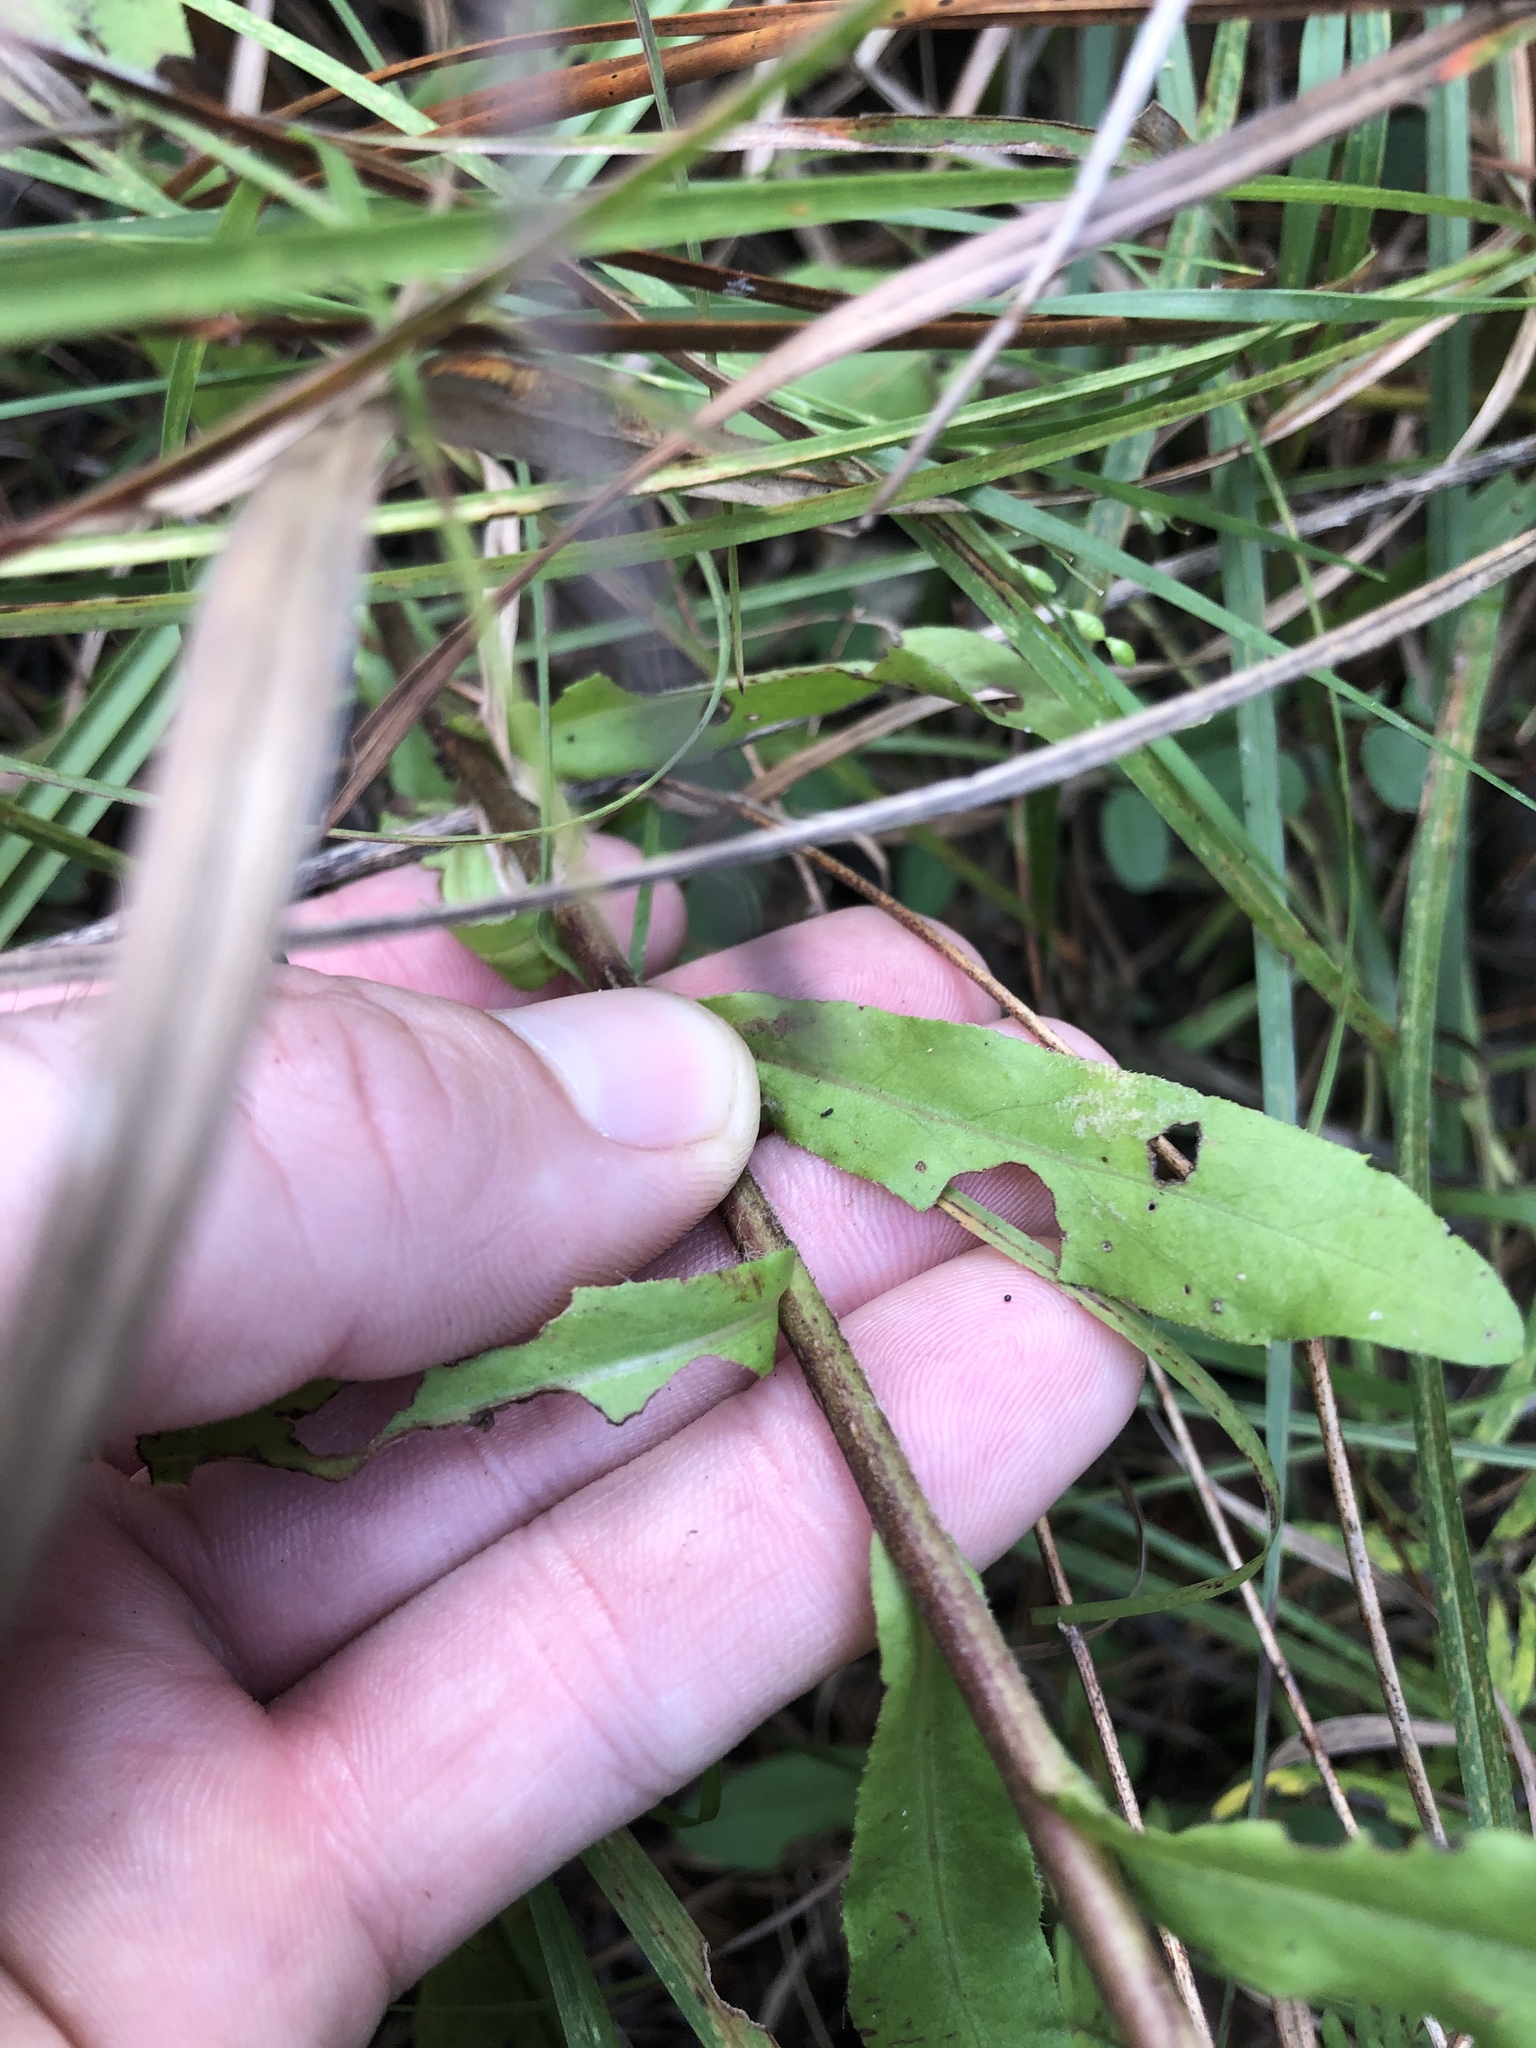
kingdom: Plantae
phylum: Tracheophyta
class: Magnoliopsida
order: Asterales
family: Asteraceae
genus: Chrysopsis
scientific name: Chrysopsis mariana
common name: Maryland golden-aster
